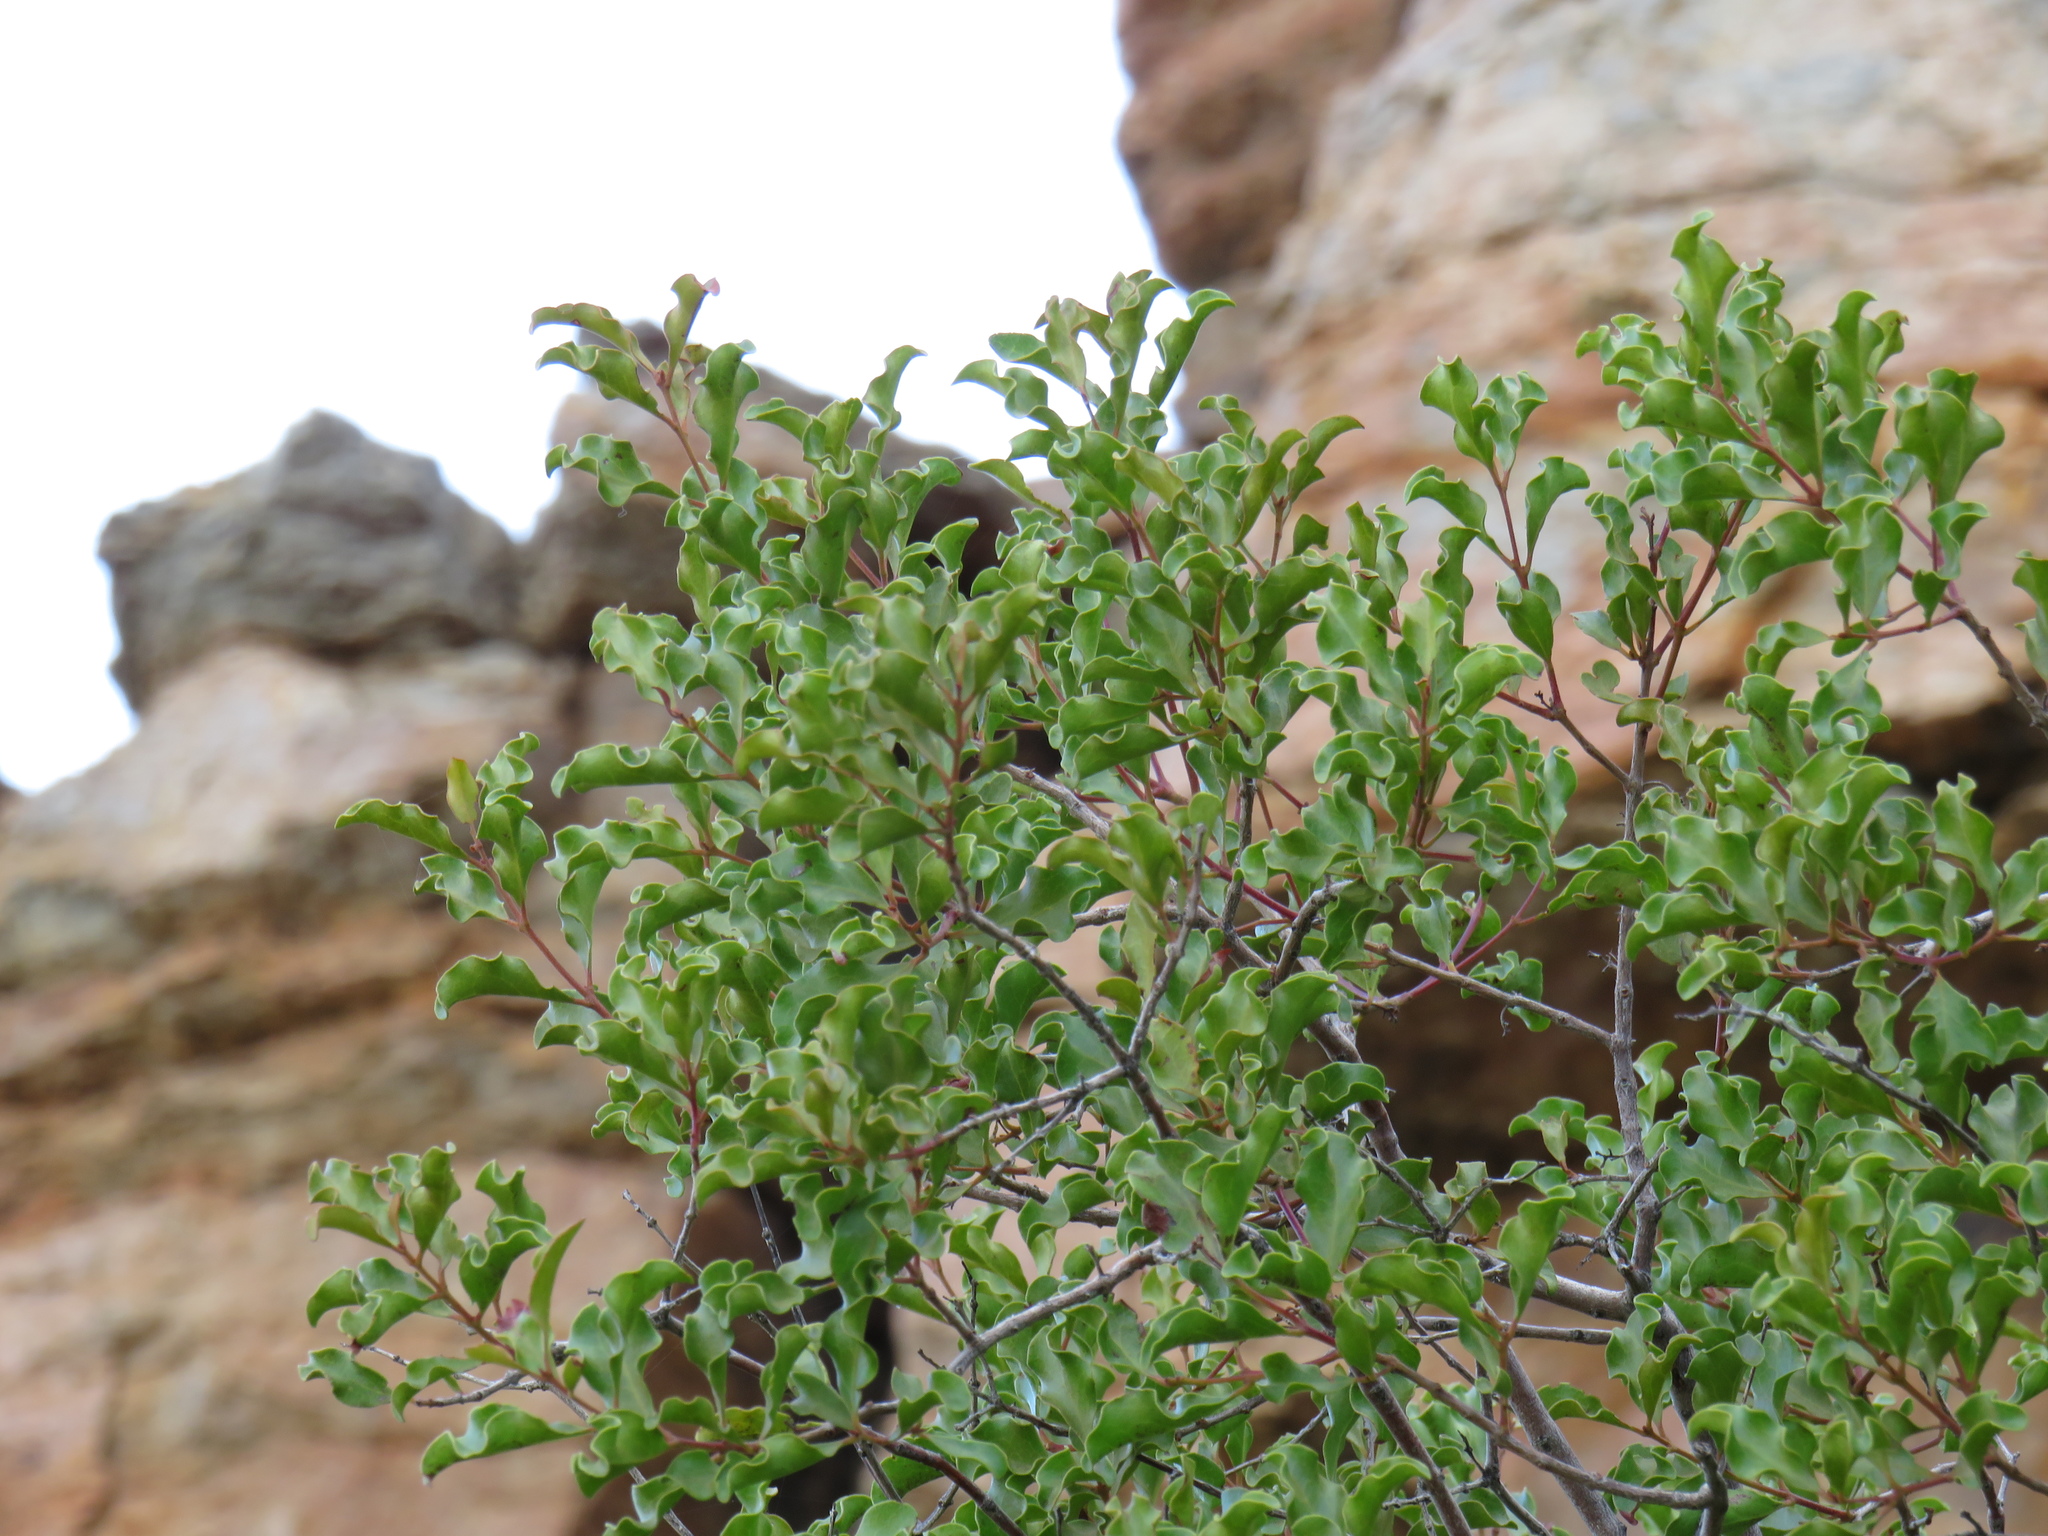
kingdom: Plantae
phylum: Tracheophyta
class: Magnoliopsida
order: Ericales
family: Ebenaceae
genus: Euclea
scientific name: Euclea undulata
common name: Small-leaved guarri
